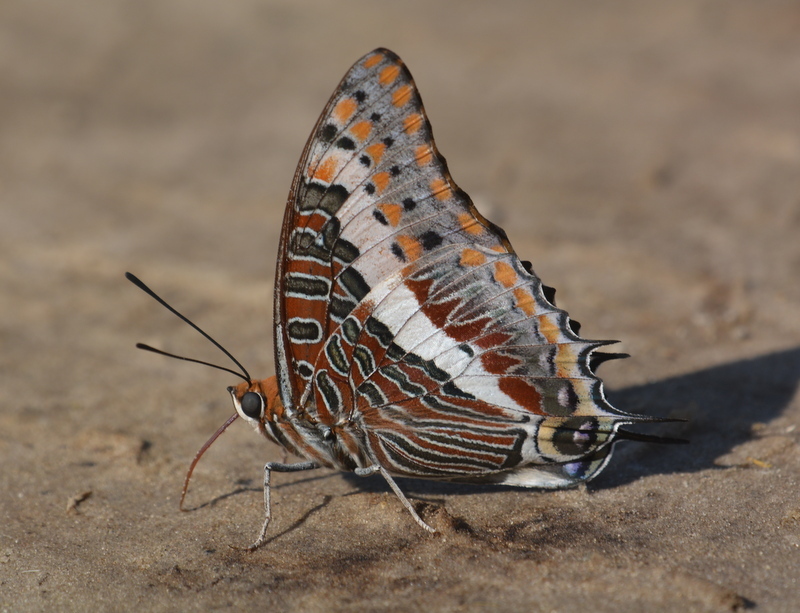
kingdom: Animalia
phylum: Arthropoda
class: Insecta
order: Lepidoptera
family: Nymphalidae
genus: Charaxes
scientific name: Charaxes jasius
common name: Two tailed pasha
